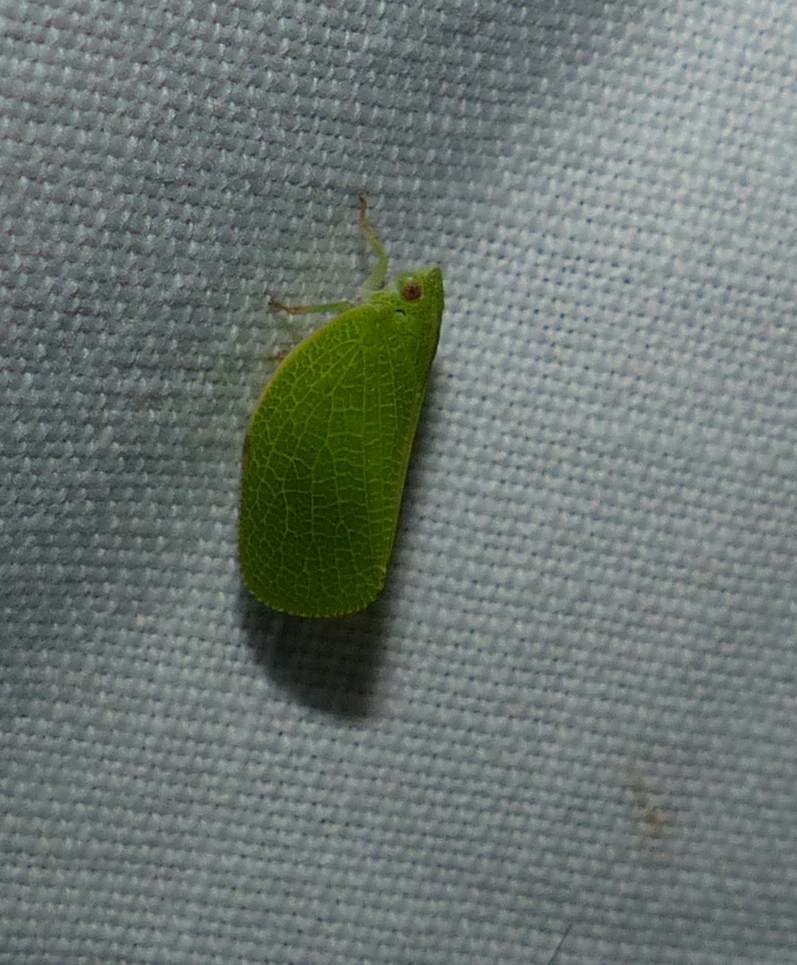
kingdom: Animalia
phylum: Arthropoda
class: Insecta
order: Hemiptera
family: Acanaloniidae
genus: Acanalonia
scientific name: Acanalonia conica
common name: Green cone-headed planthopper
